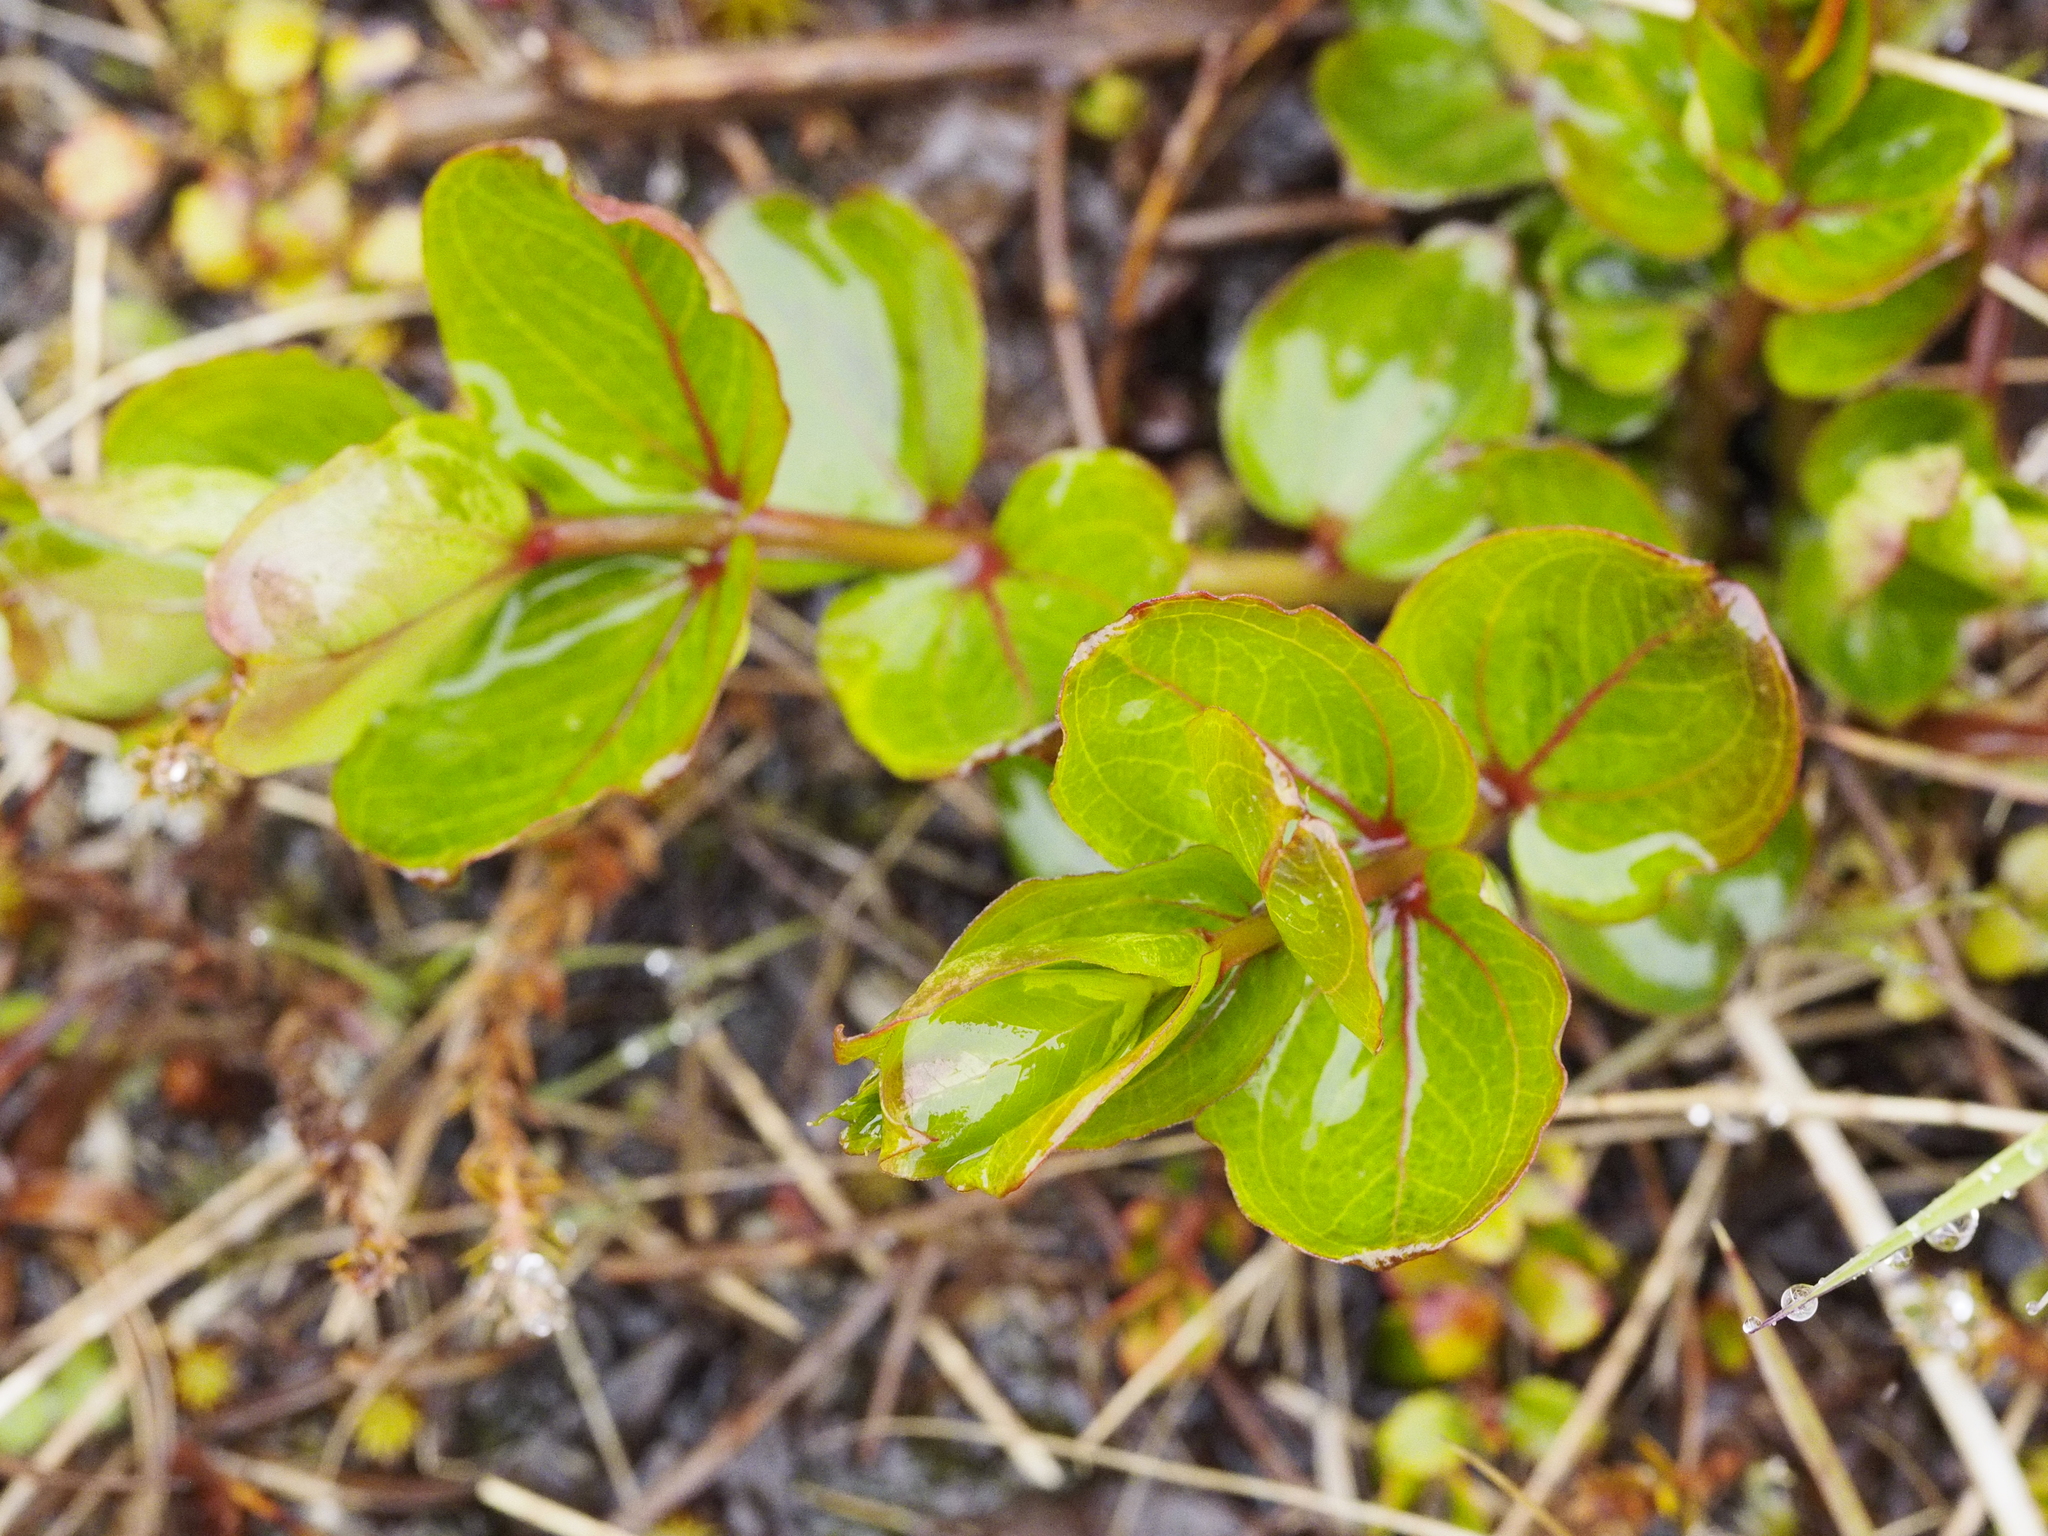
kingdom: Plantae
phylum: Tracheophyta
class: Magnoliopsida
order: Cucurbitales
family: Coriariaceae
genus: Coriaria
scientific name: Coriaria sarmentosa
